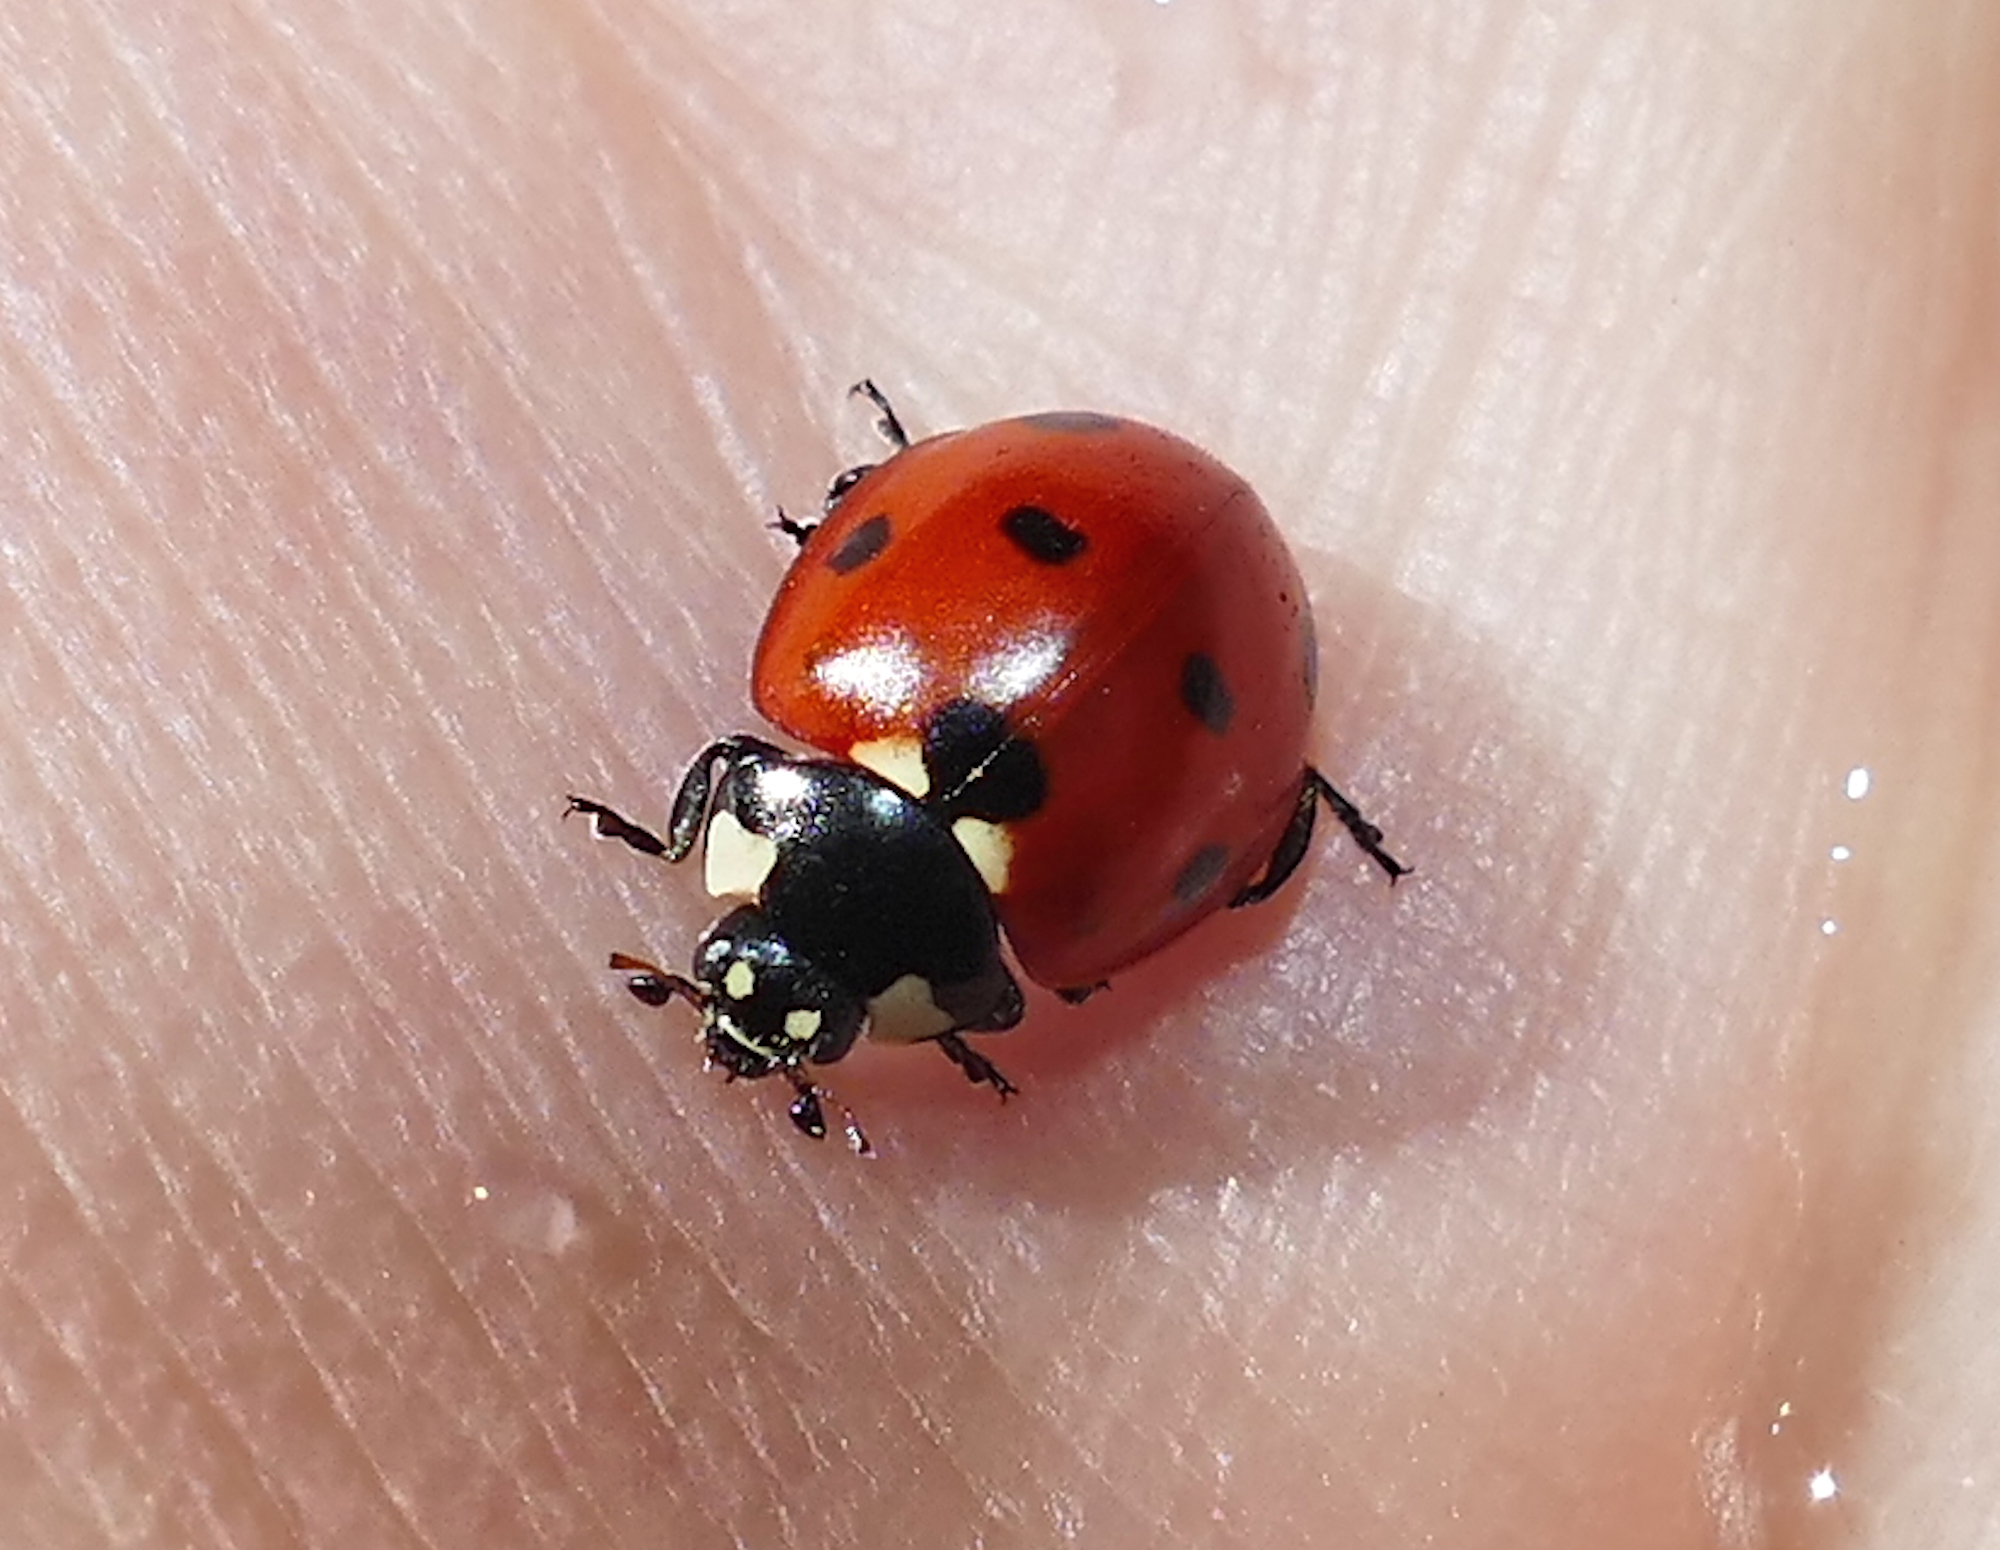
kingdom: Animalia
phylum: Arthropoda
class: Insecta
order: Coleoptera
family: Coccinellidae
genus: Coccinella
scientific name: Coccinella septempunctata
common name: Sevenspotted lady beetle
